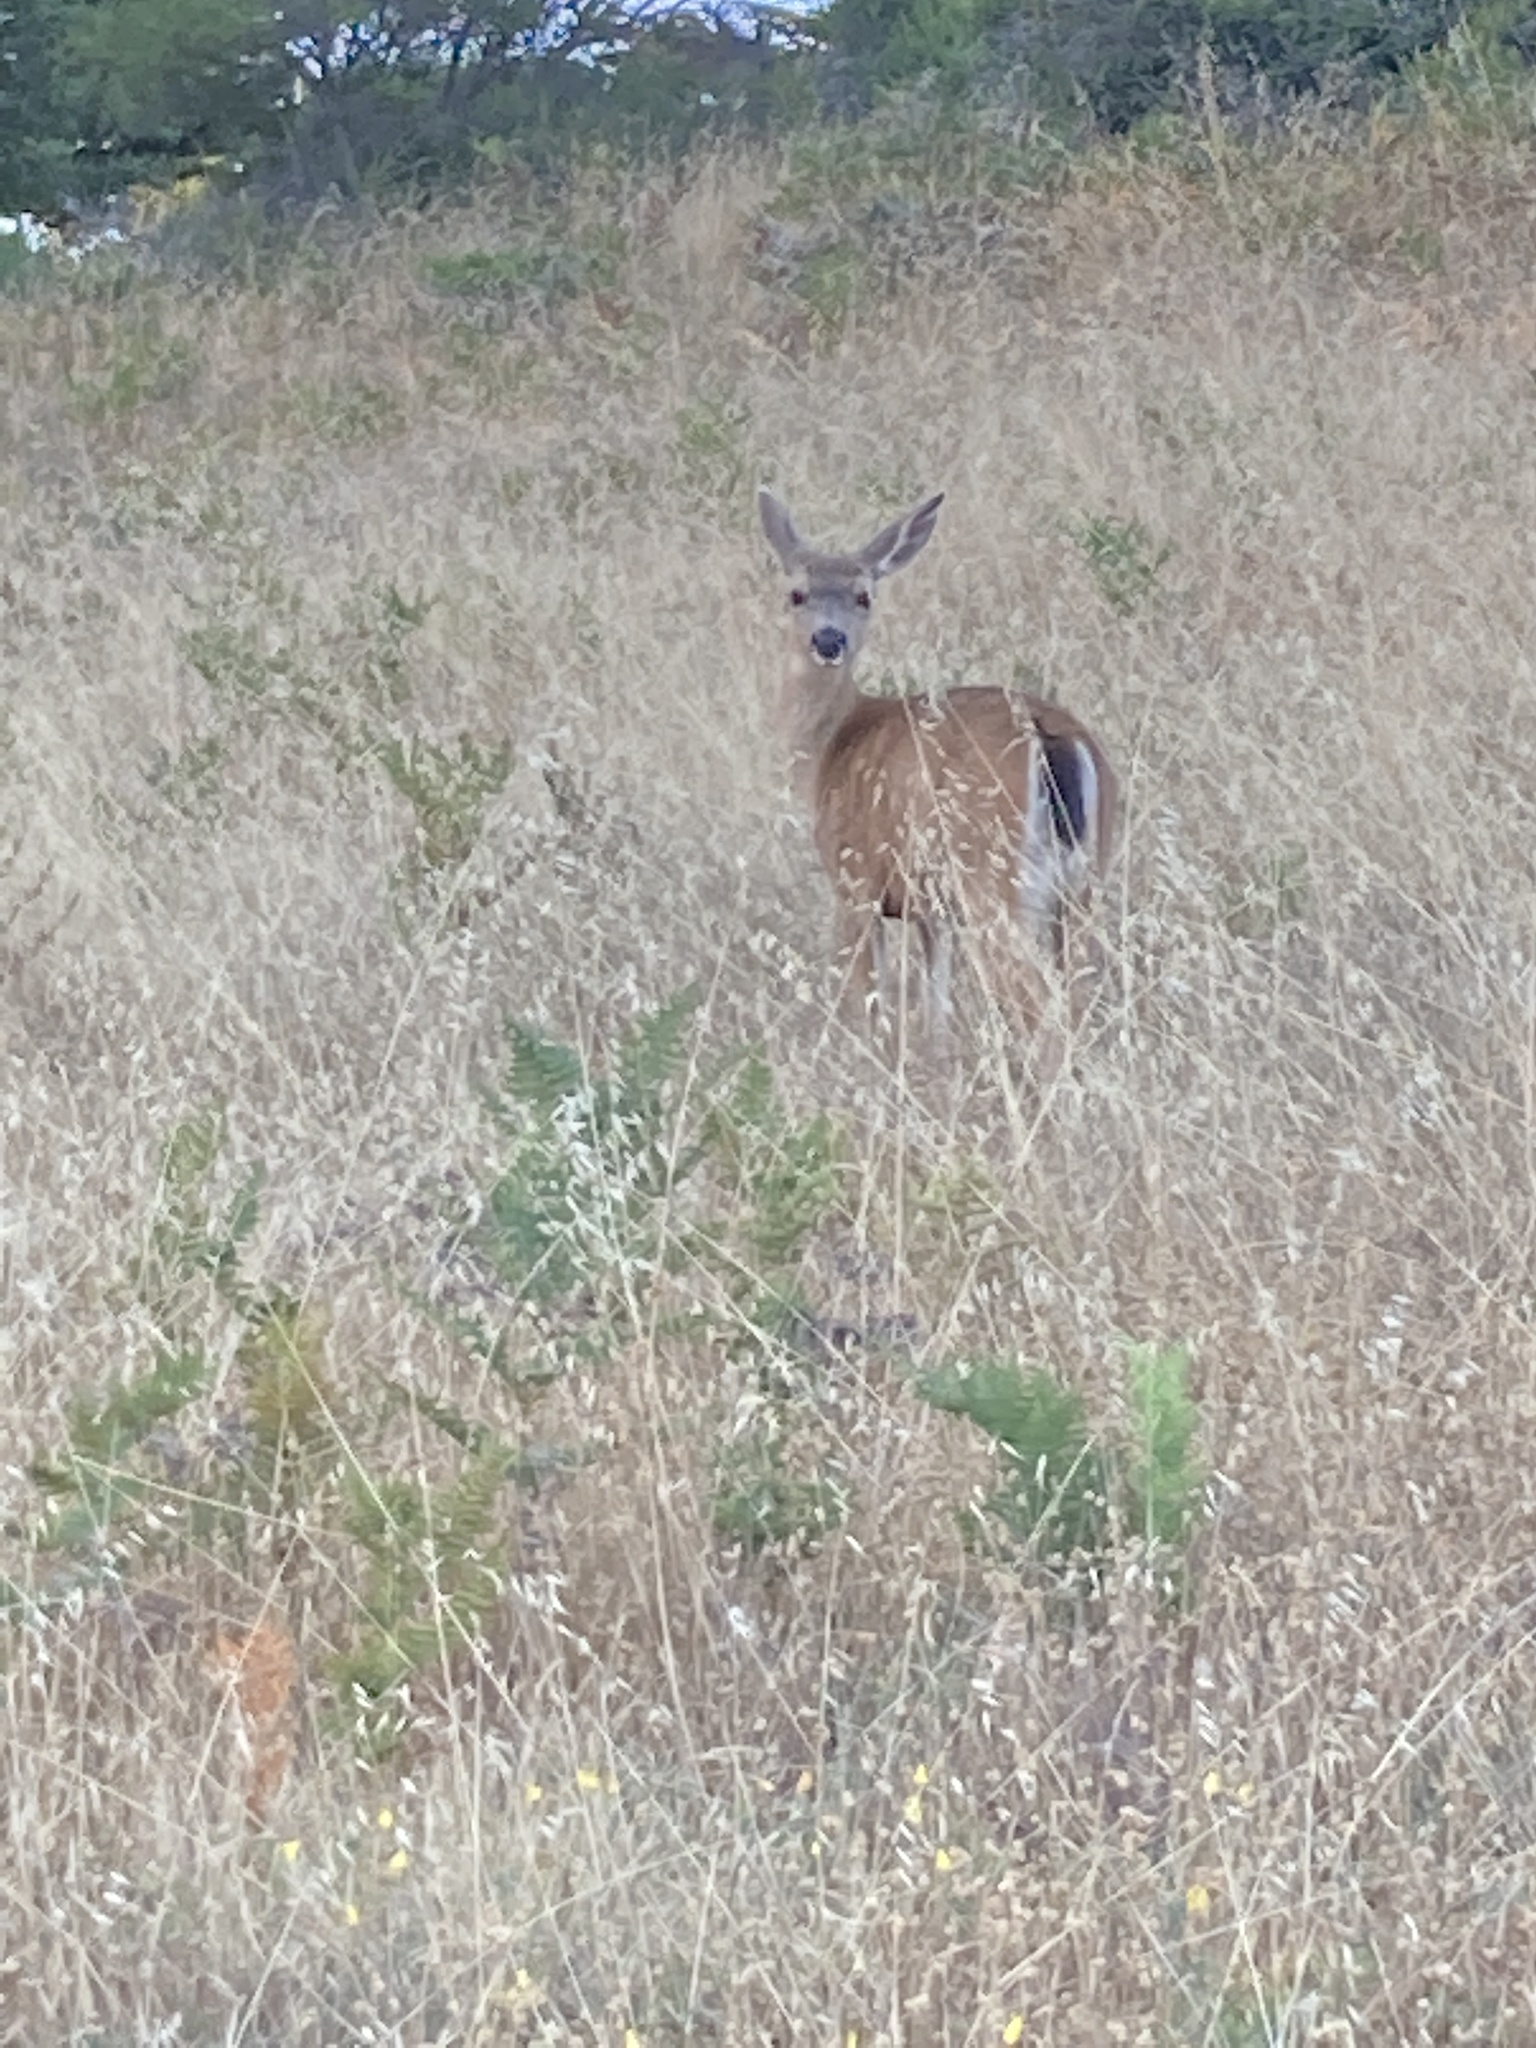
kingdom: Animalia
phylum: Chordata
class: Mammalia
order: Artiodactyla
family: Cervidae
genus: Odocoileus
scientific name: Odocoileus hemionus
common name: Mule deer
